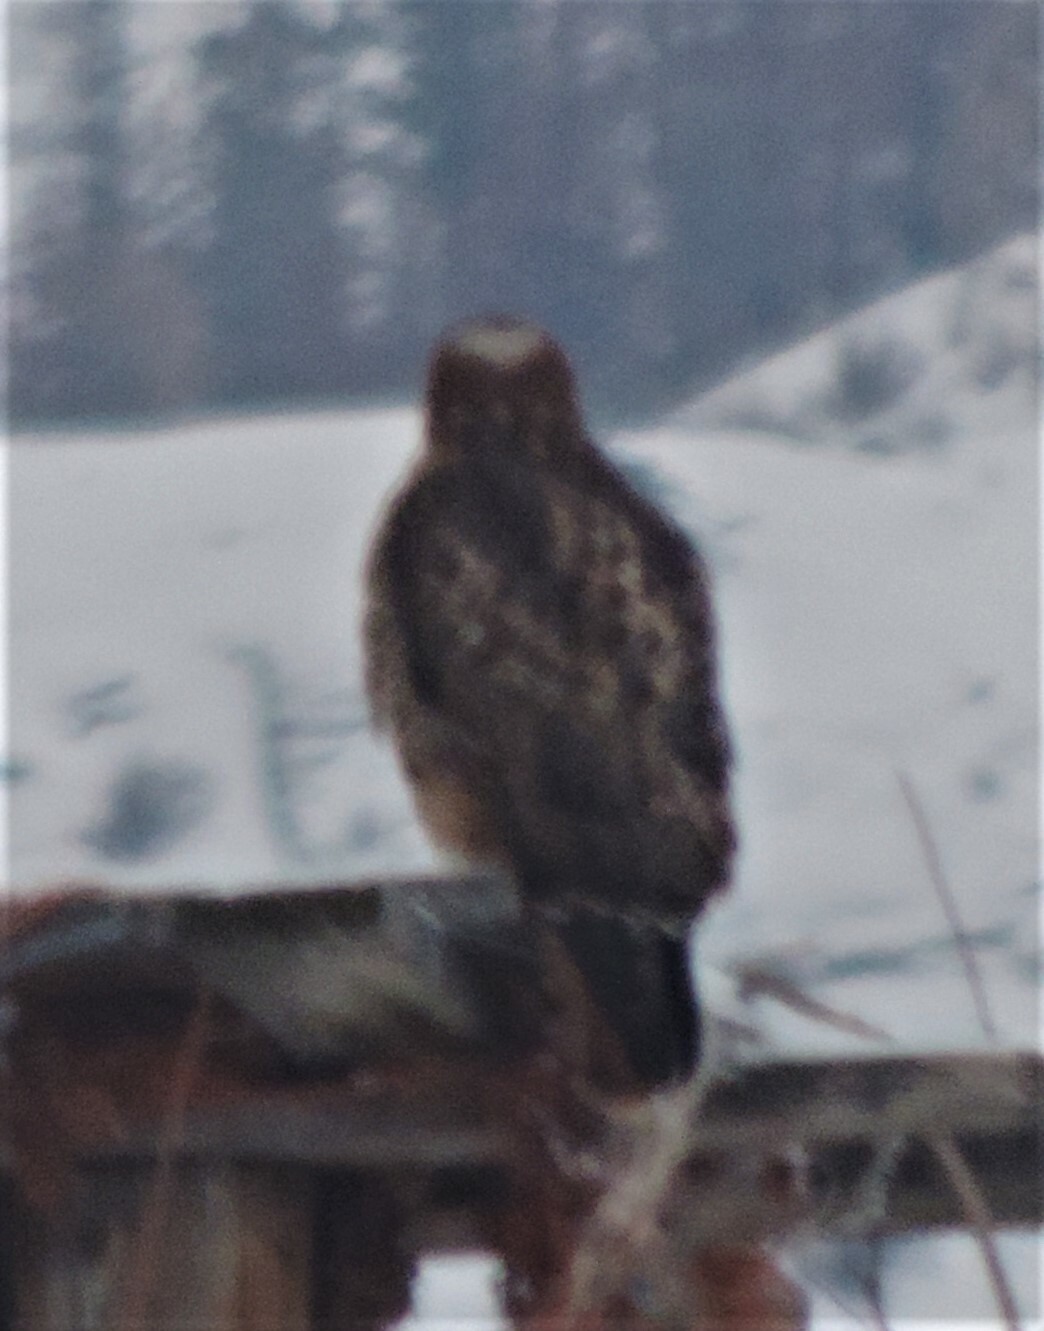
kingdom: Animalia
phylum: Chordata
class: Aves
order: Accipitriformes
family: Accipitridae
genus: Buteo
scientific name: Buteo jamaicensis
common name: Red-tailed hawk
